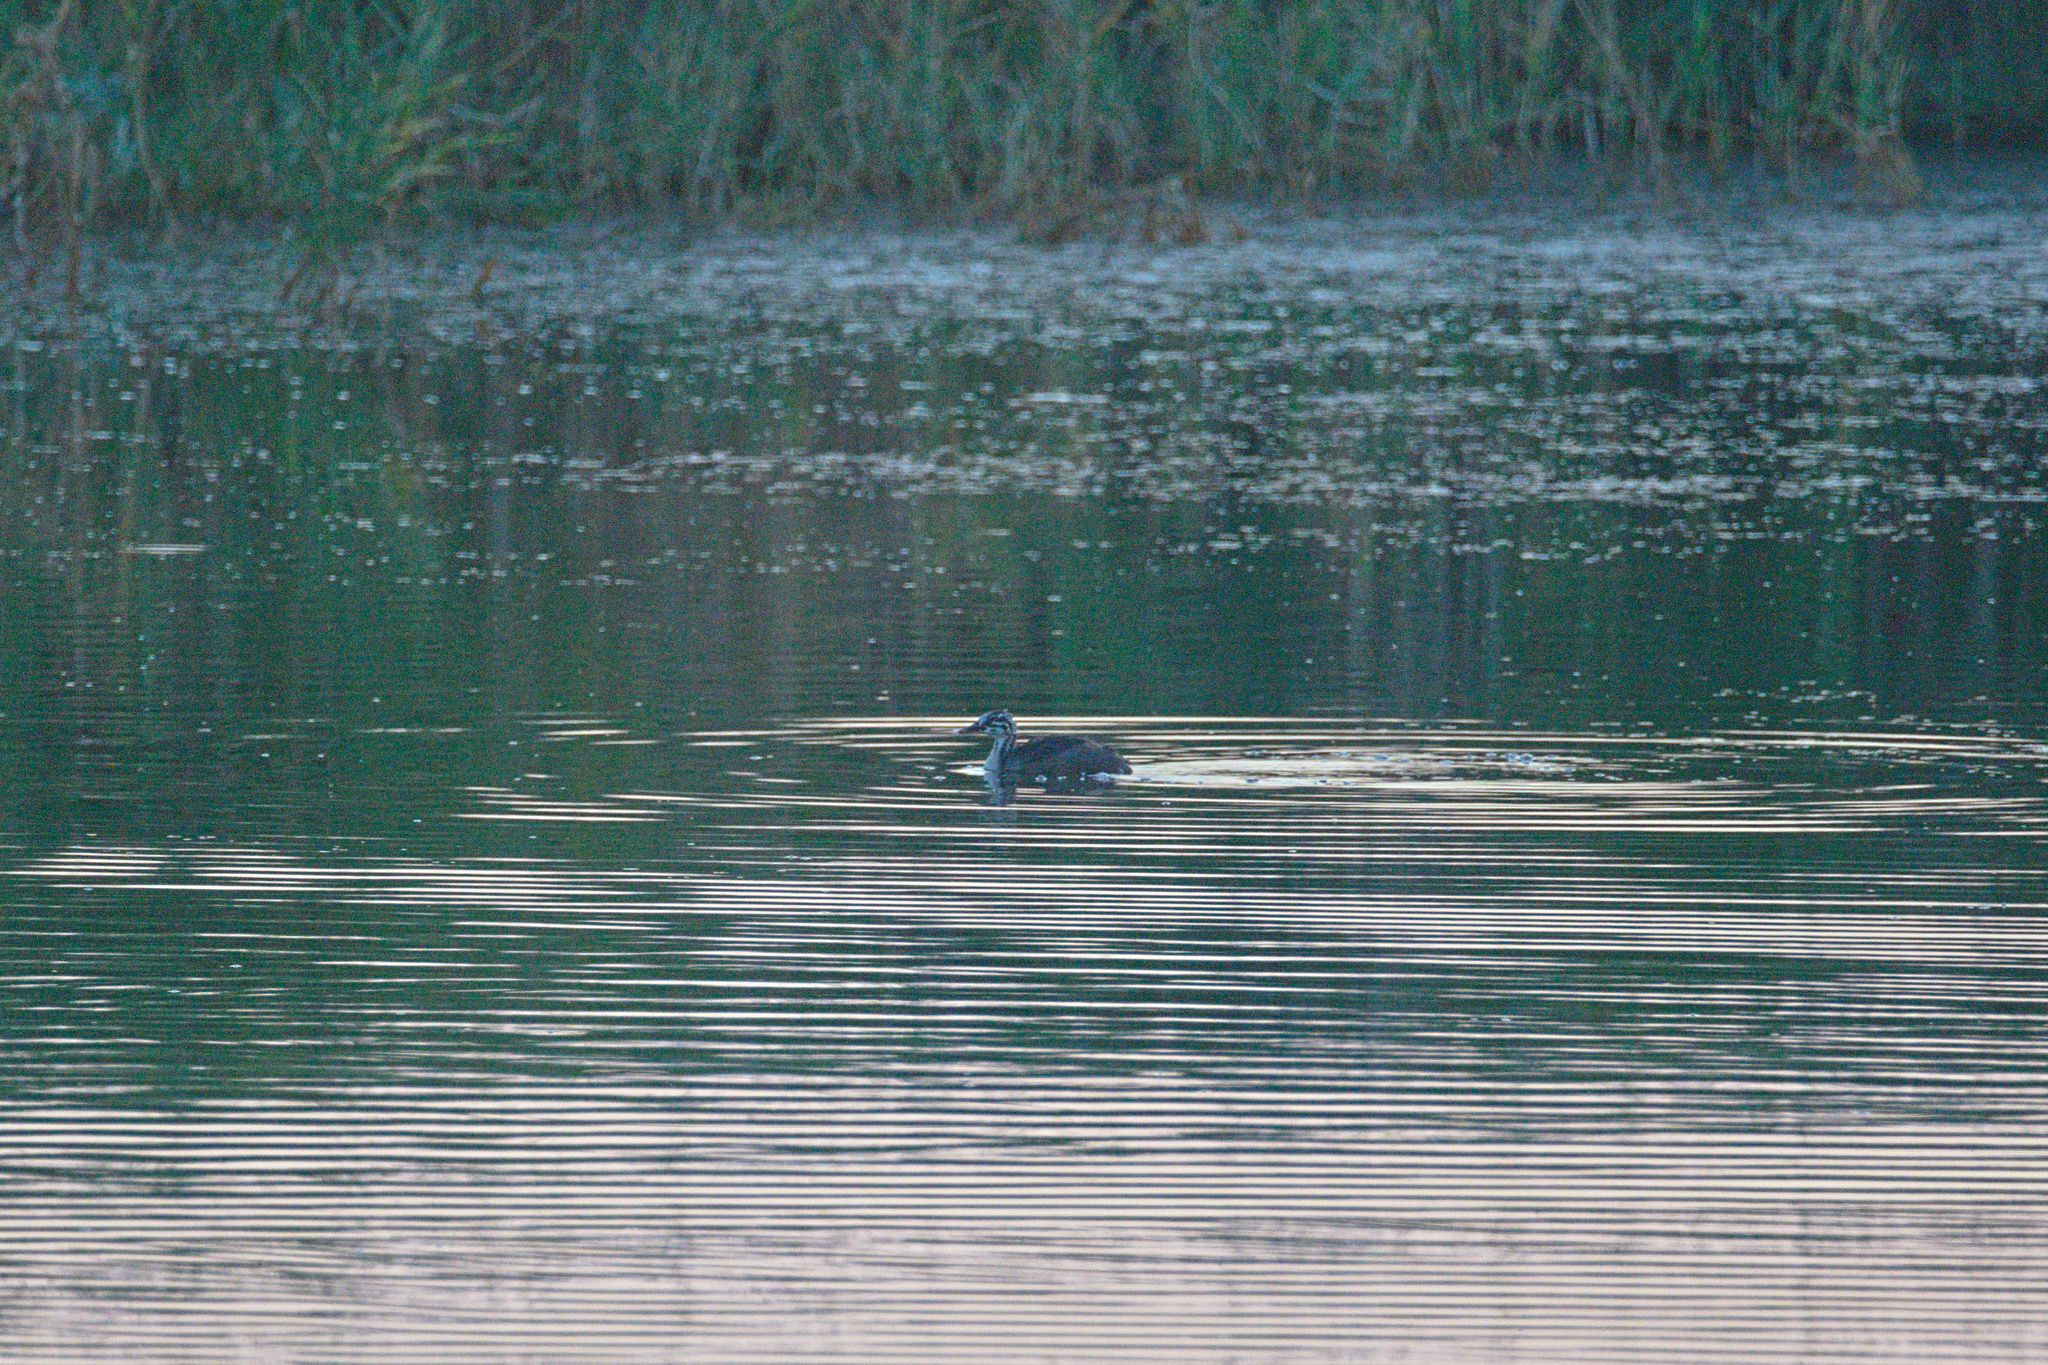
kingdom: Animalia
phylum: Chordata
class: Aves
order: Podicipediformes
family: Podicipedidae
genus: Podiceps
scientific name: Podiceps cristatus
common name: Great crested grebe
